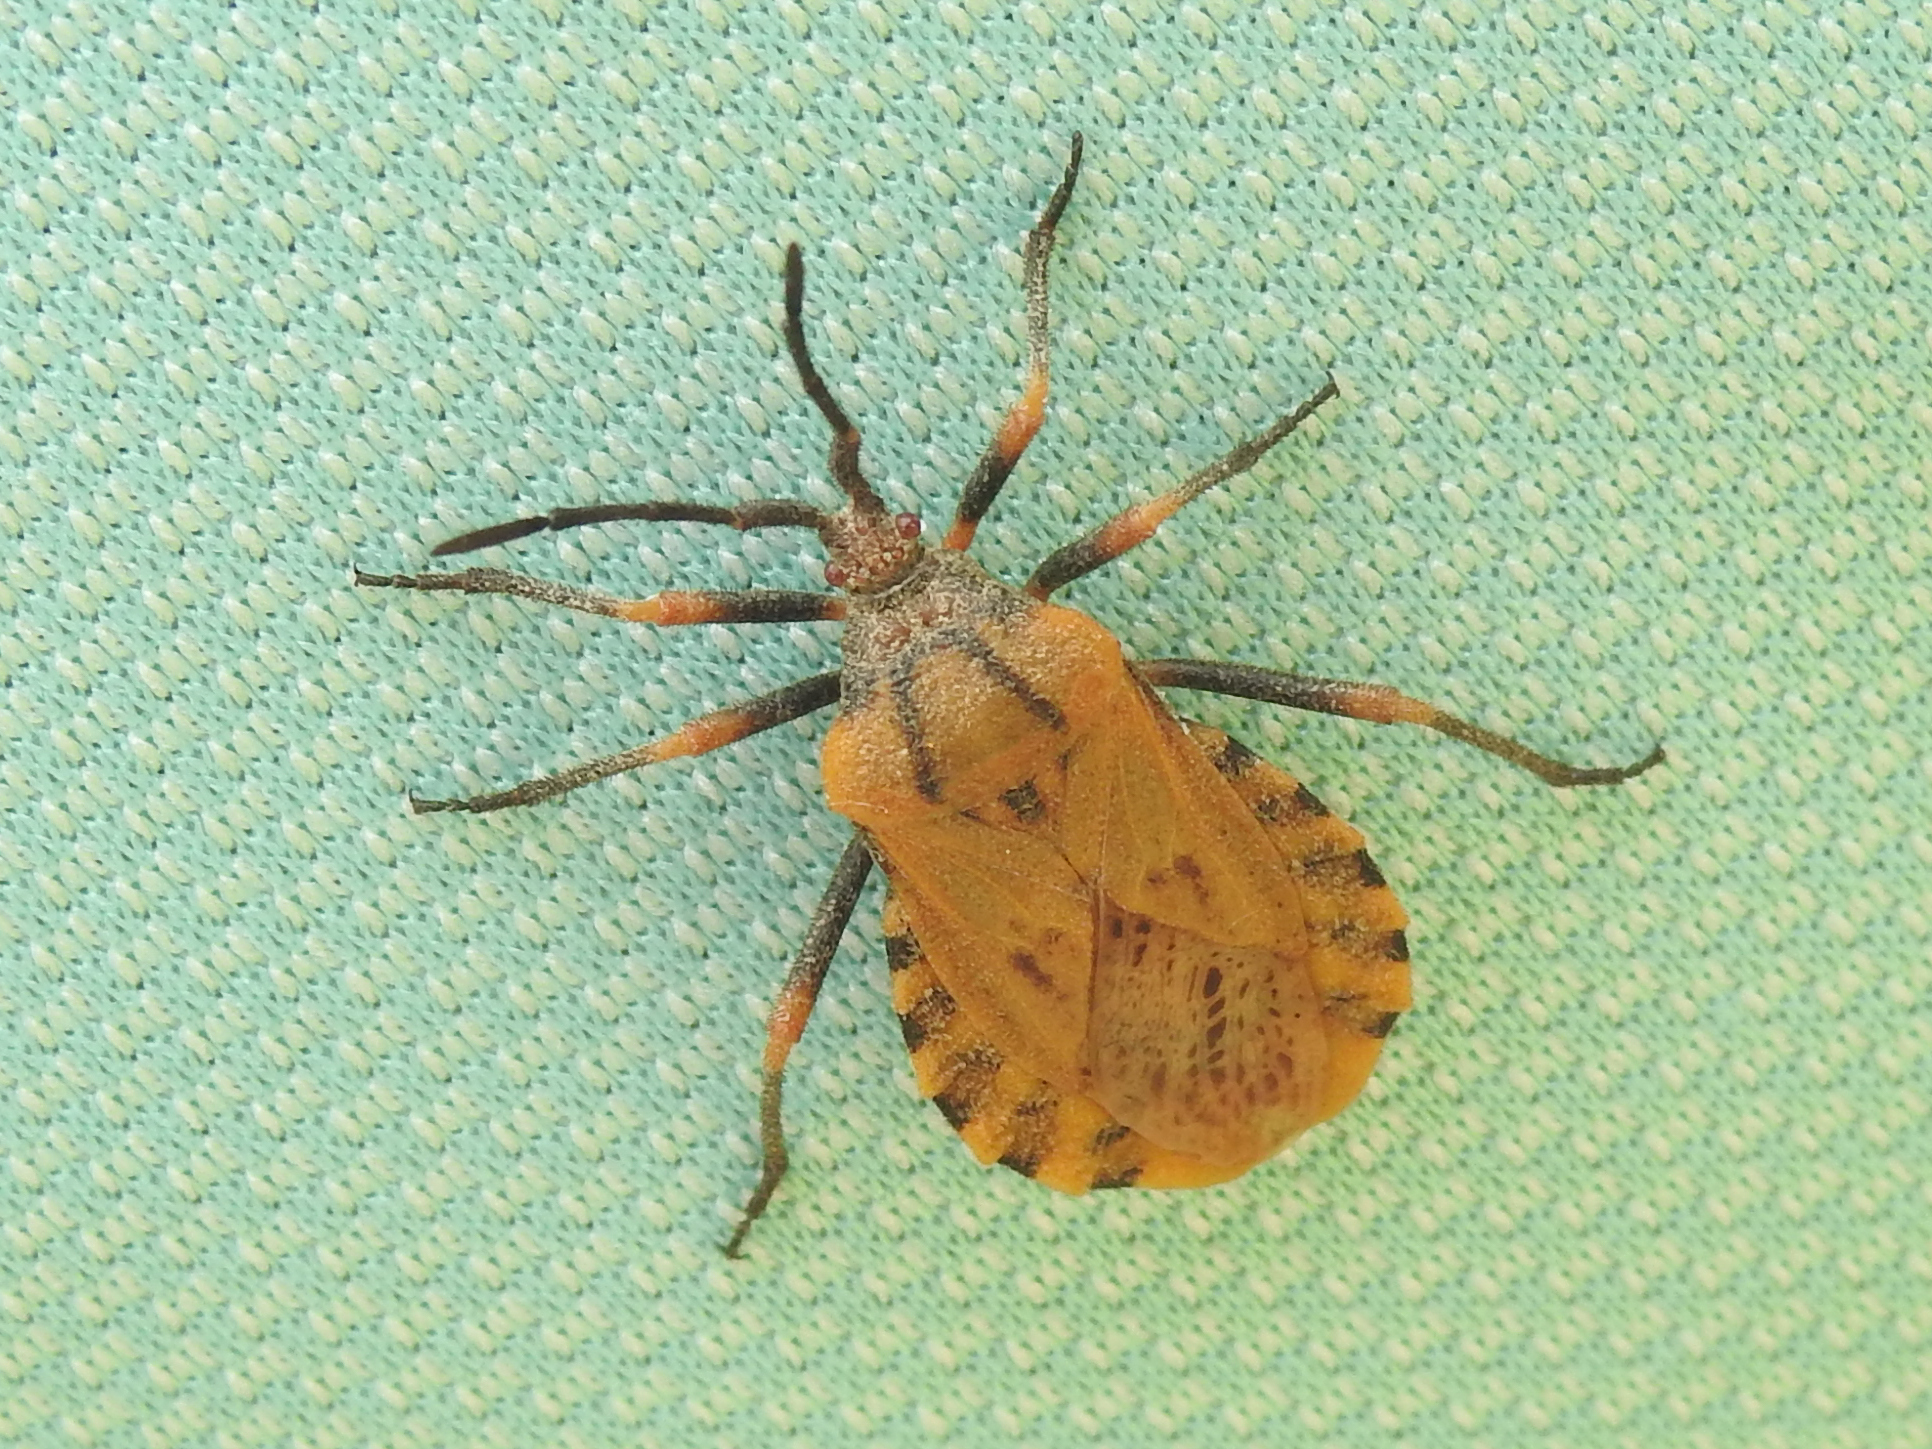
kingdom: Animalia
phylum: Arthropoda
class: Insecta
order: Hemiptera
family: Coreidae
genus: Spartocera
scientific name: Spartocera fusca
